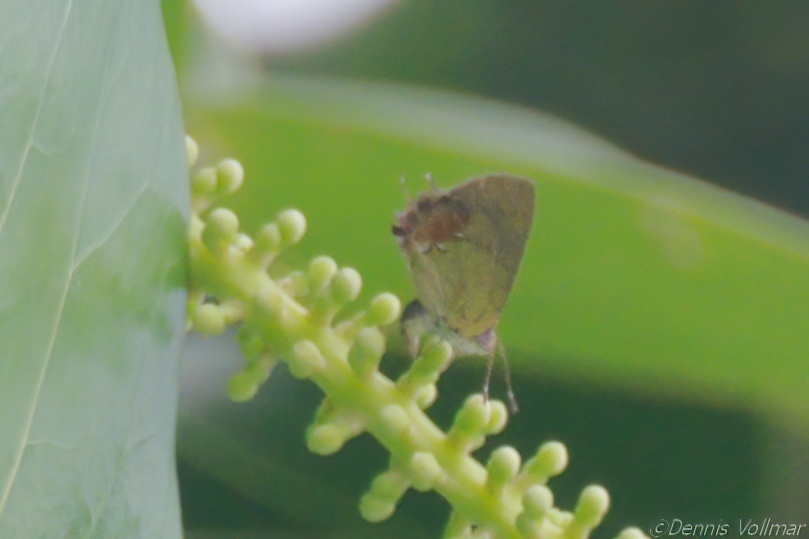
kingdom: Animalia
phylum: Arthropoda
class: Insecta
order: Lepidoptera
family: Lycaenidae
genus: Thecla
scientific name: Thecla maesites
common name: Verde azul hairstreak
